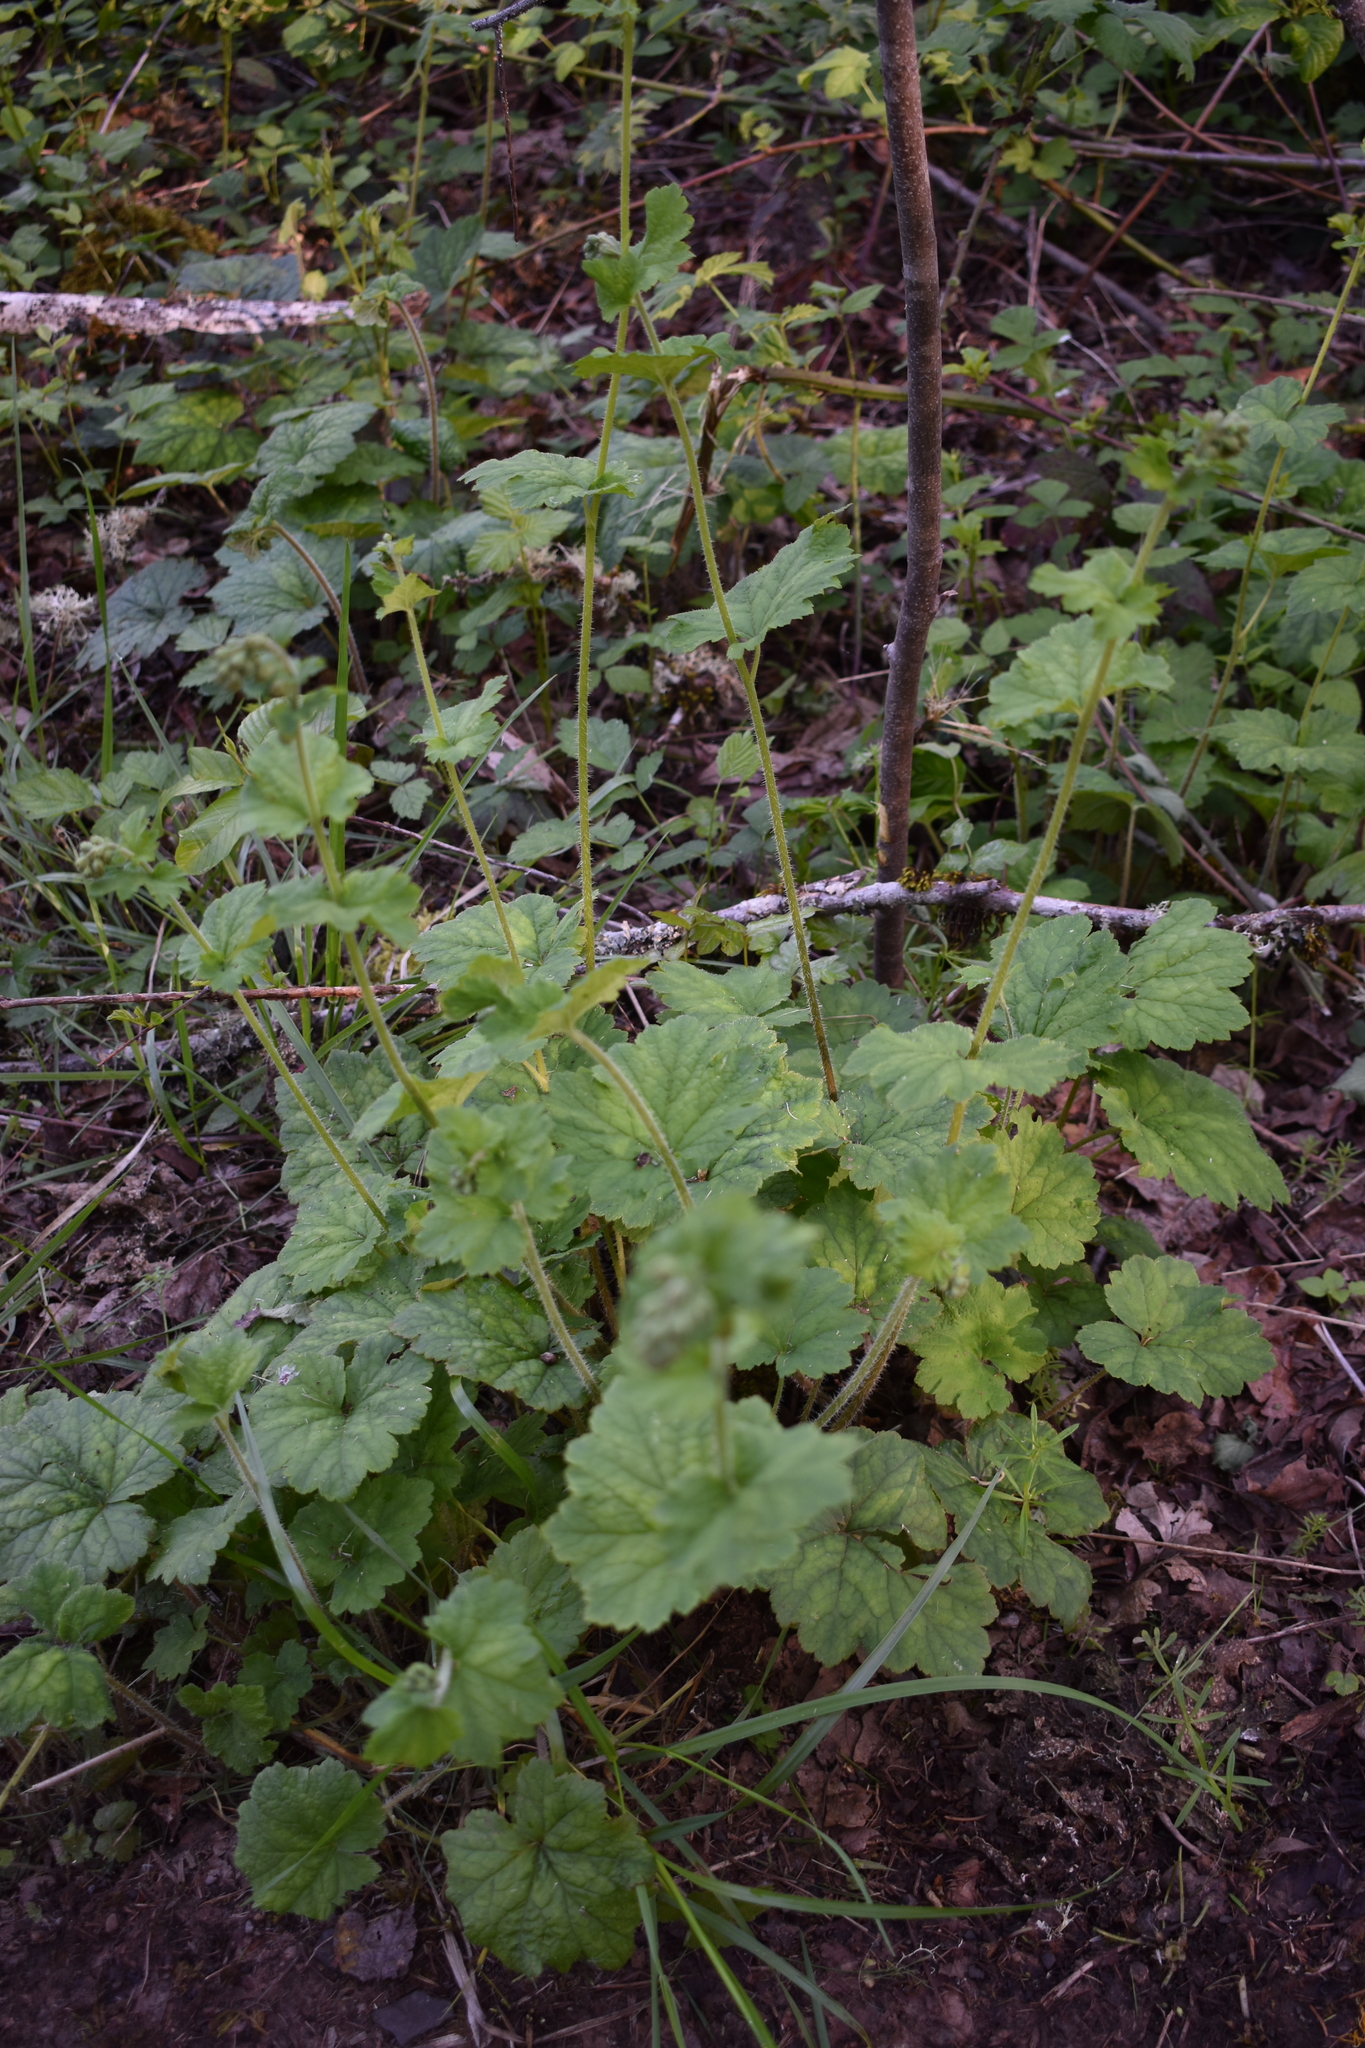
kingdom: Plantae
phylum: Tracheophyta
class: Magnoliopsida
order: Saxifragales
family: Saxifragaceae
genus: Tellima
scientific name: Tellima grandiflora
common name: Fringecups
